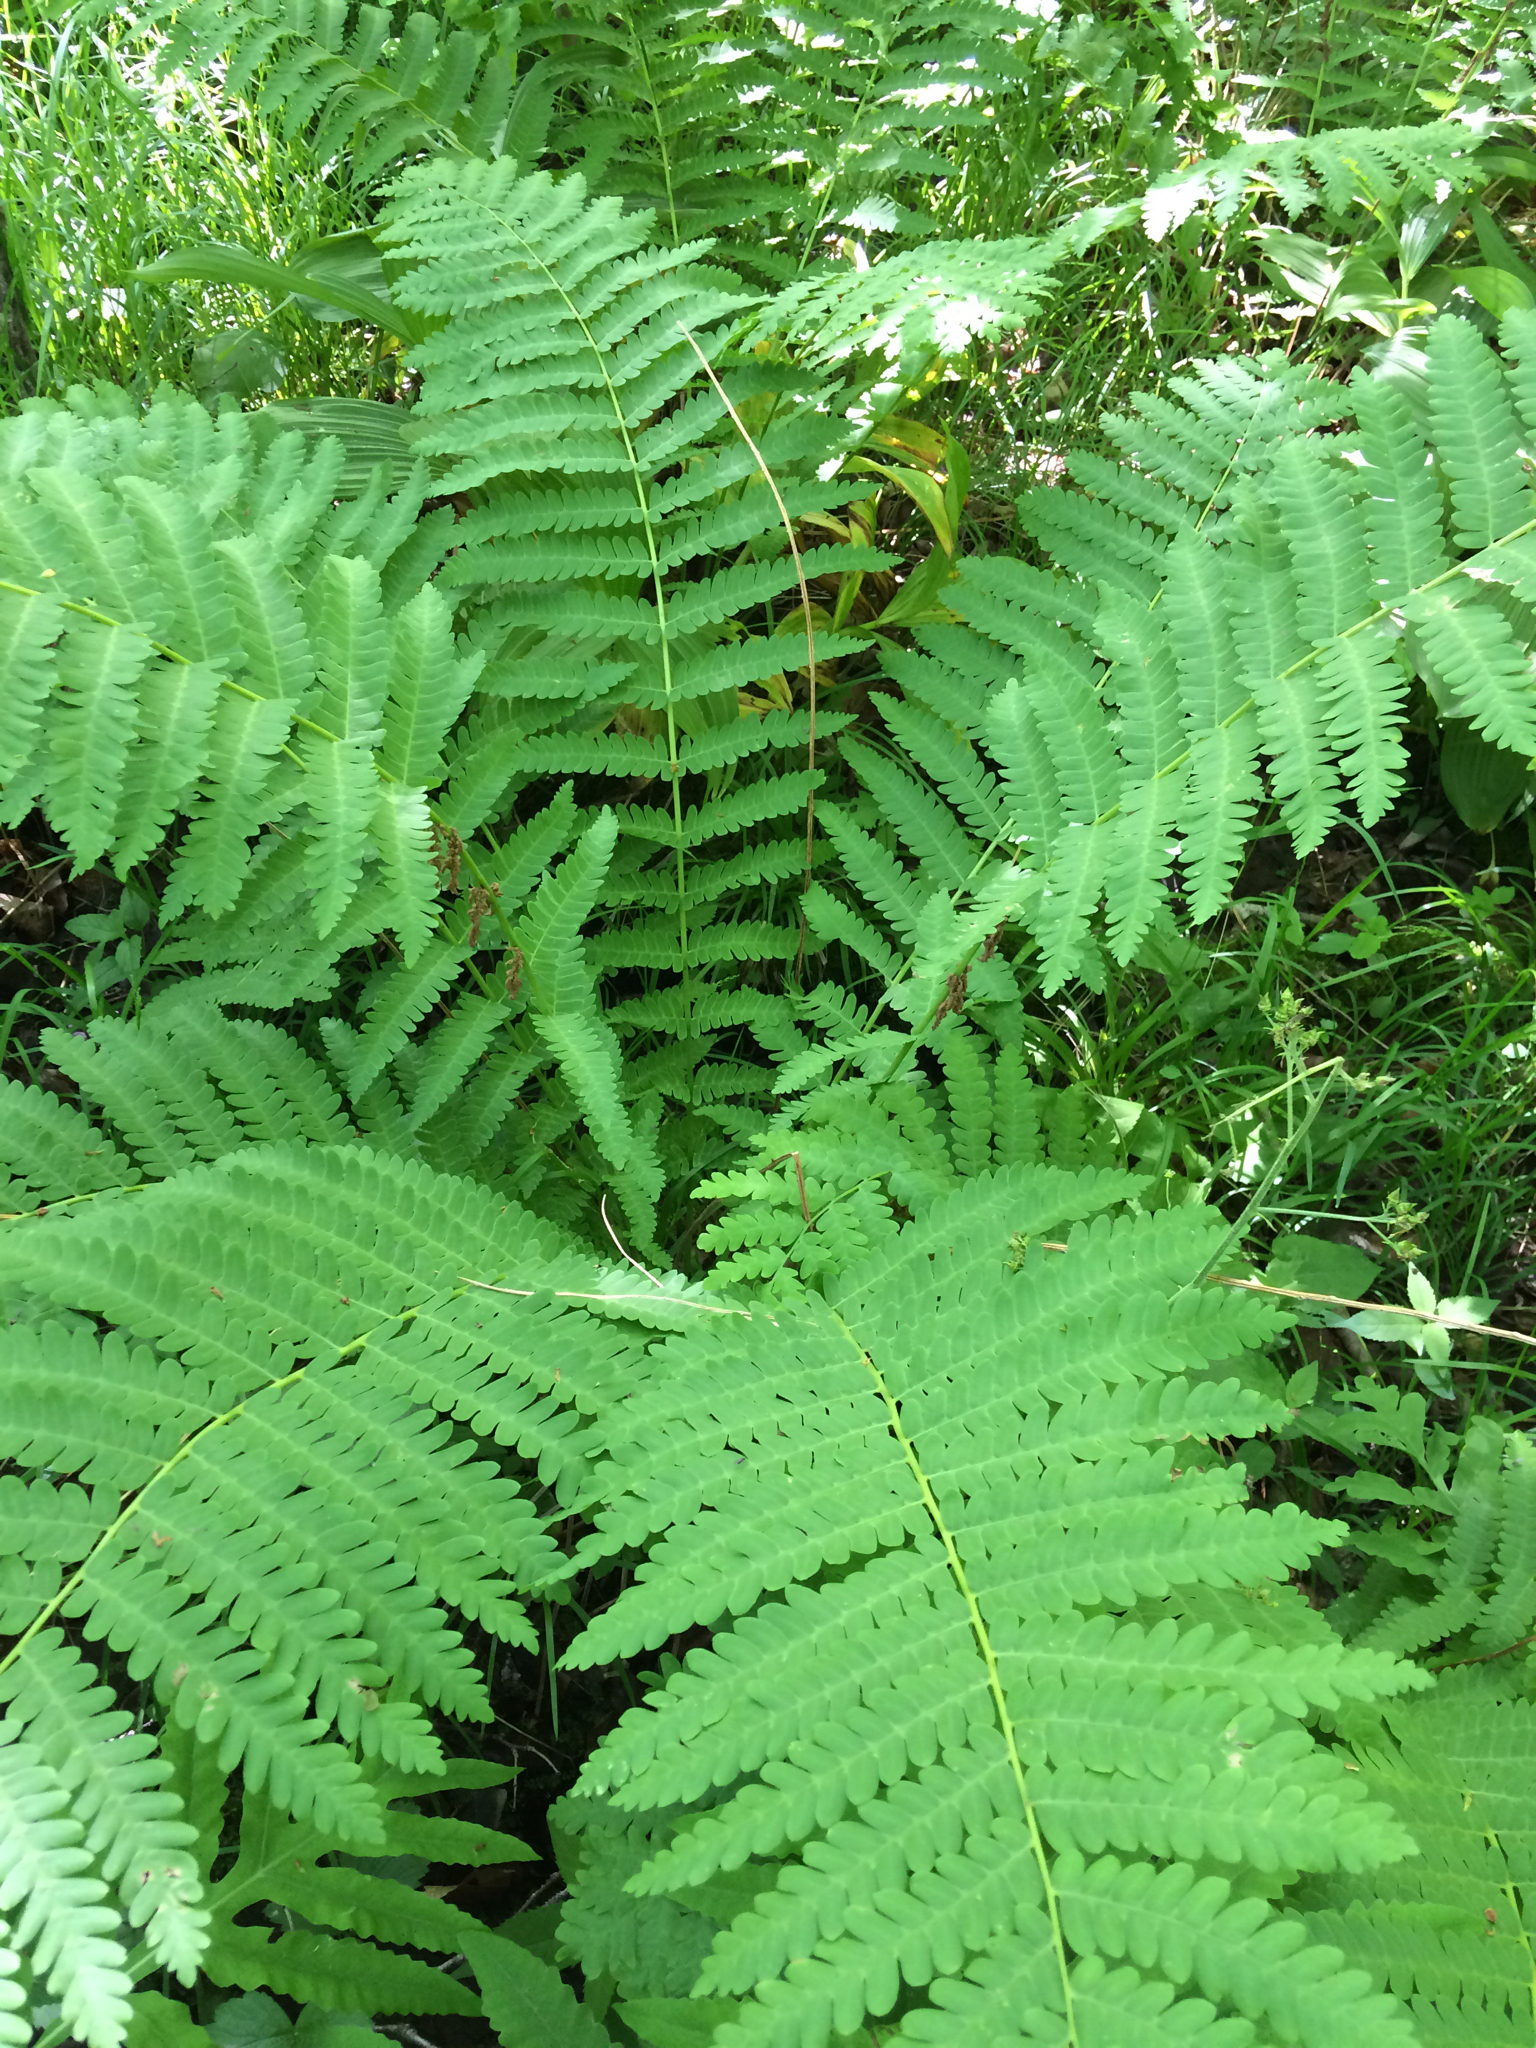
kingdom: Plantae
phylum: Tracheophyta
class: Polypodiopsida
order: Osmundales
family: Osmundaceae
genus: Claytosmunda
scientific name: Claytosmunda claytoniana
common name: Clayton's fern
